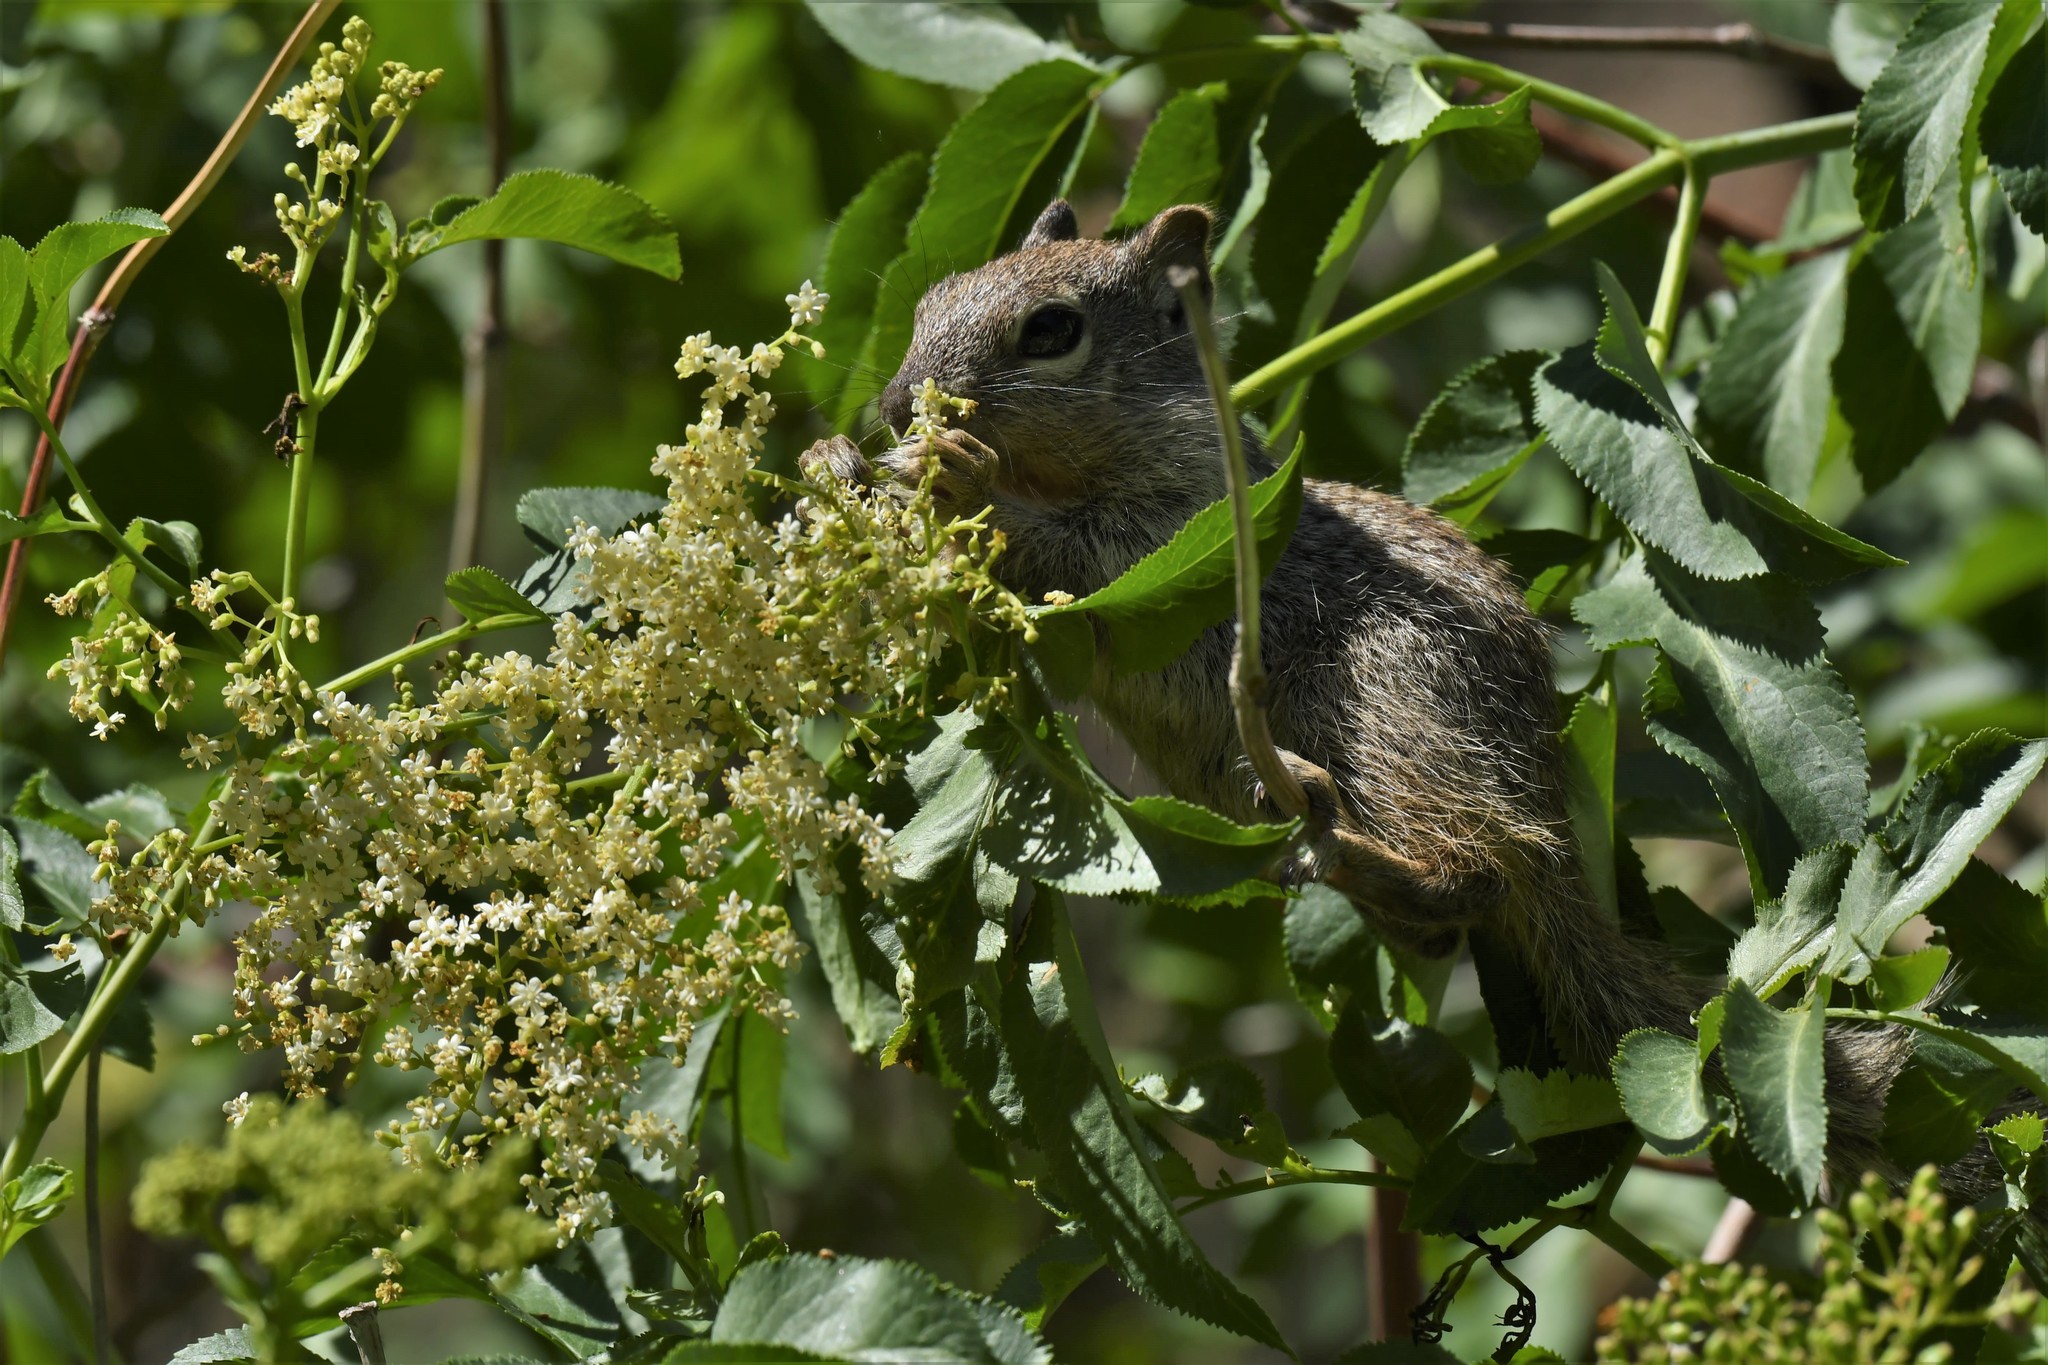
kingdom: Animalia
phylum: Chordata
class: Mammalia
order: Rodentia
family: Sciuridae
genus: Otospermophilus
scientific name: Otospermophilus variegatus
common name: Rock squirrel
